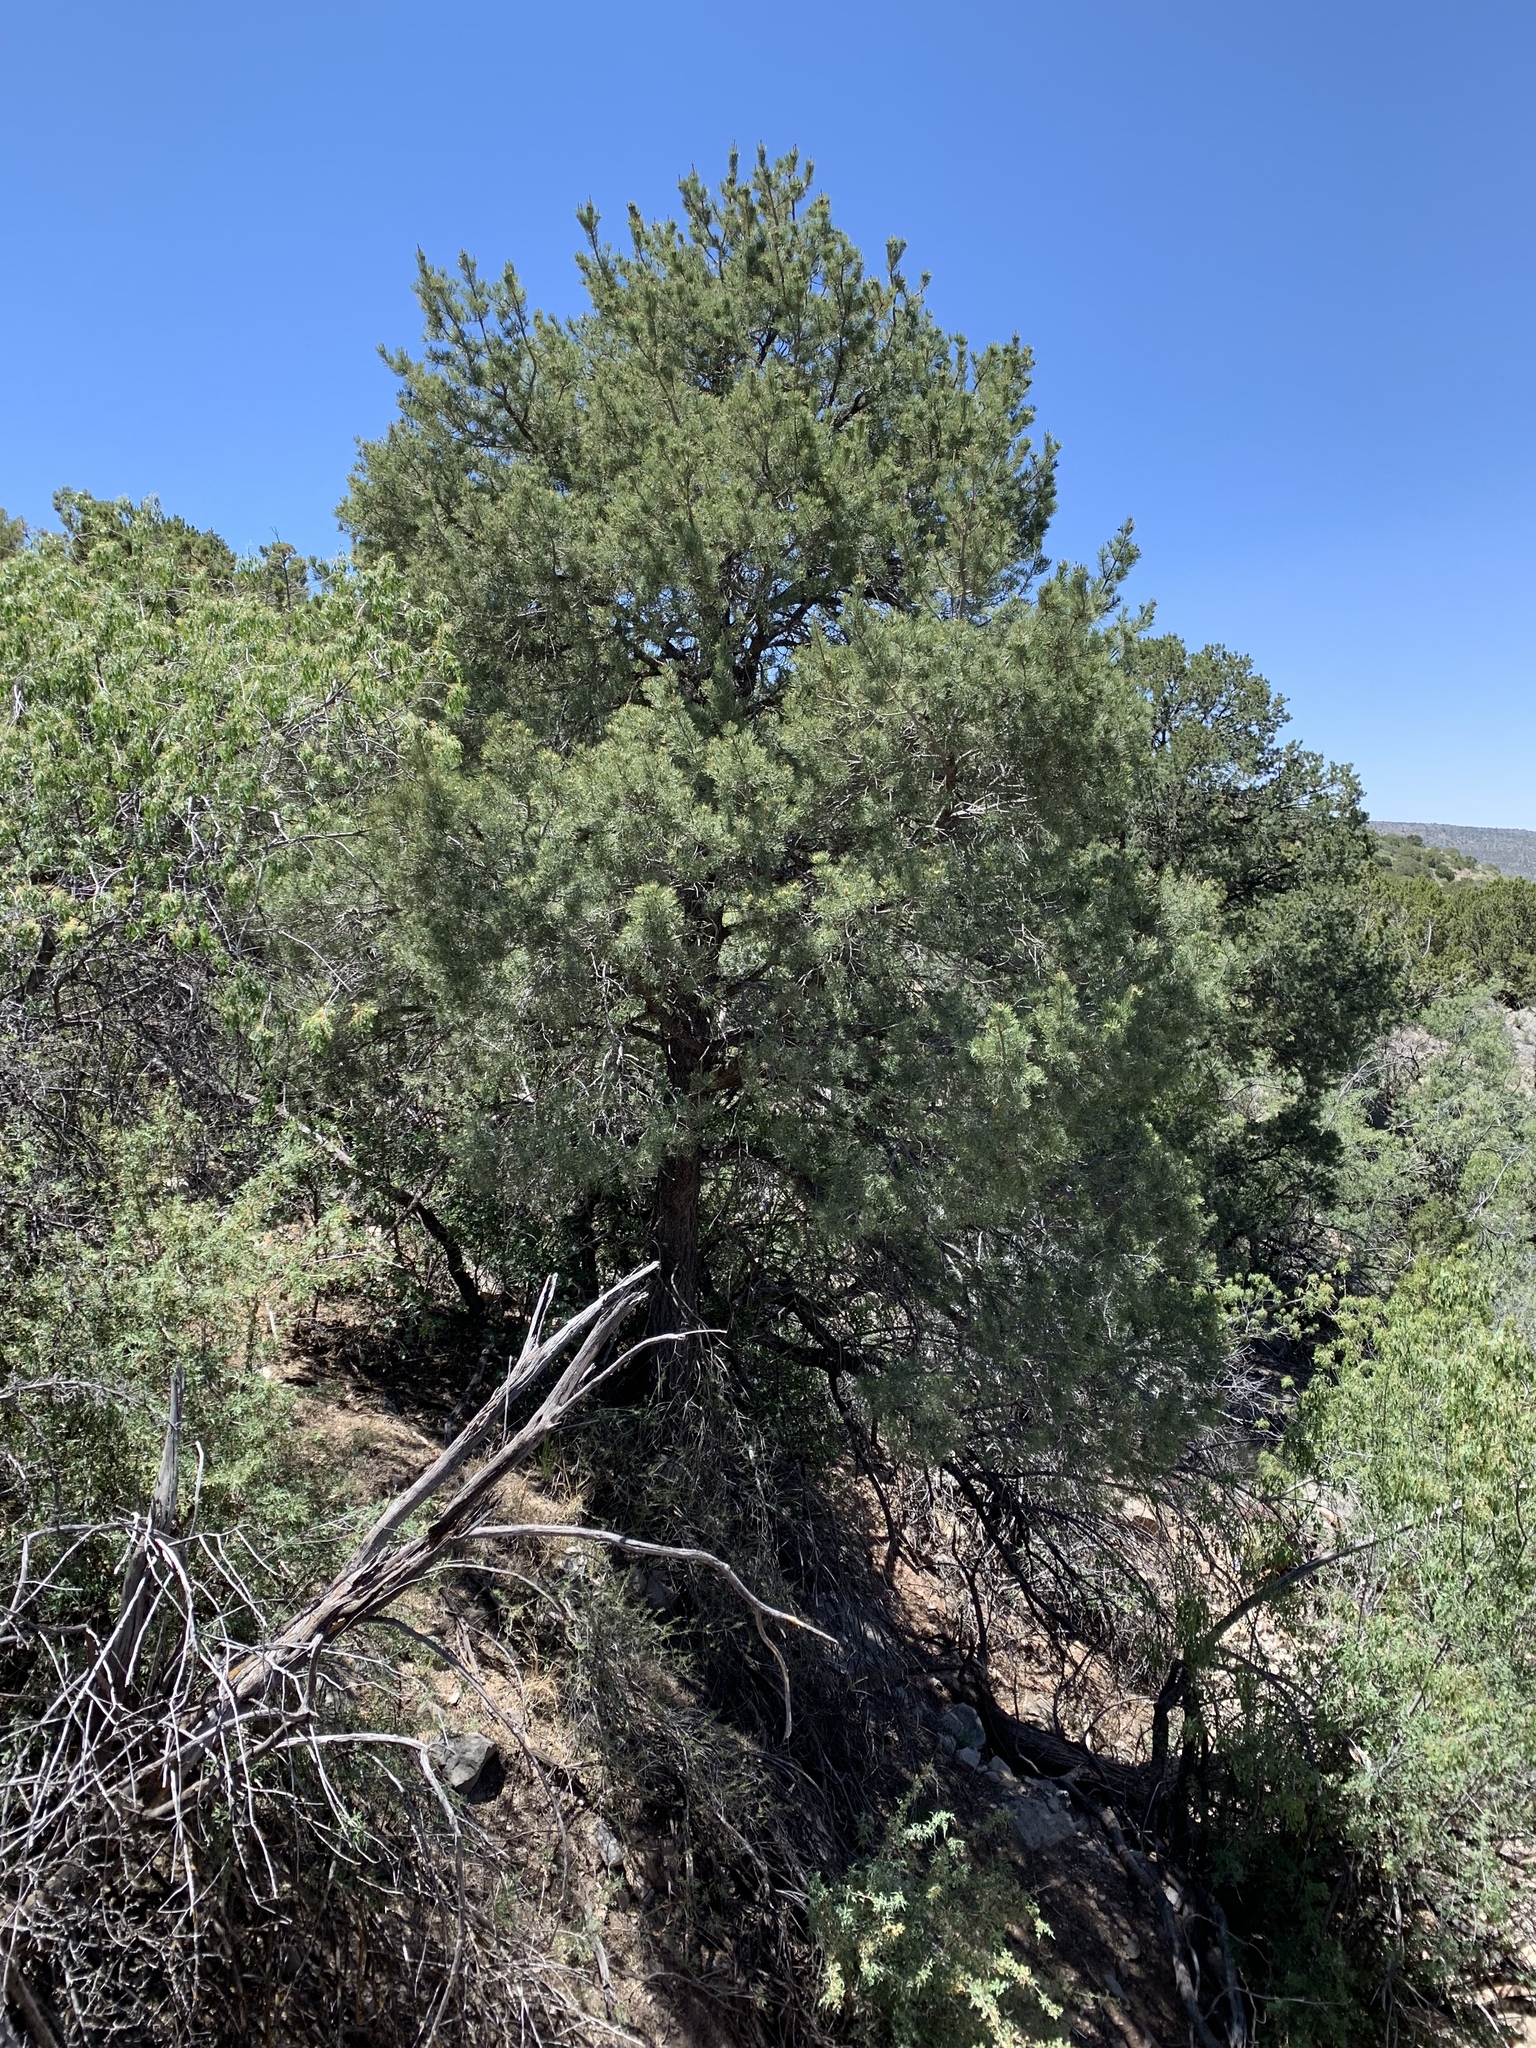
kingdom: Plantae
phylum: Tracheophyta
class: Pinopsida
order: Pinales
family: Pinaceae
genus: Pinus
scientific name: Pinus edulis
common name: Colorado pinyon
